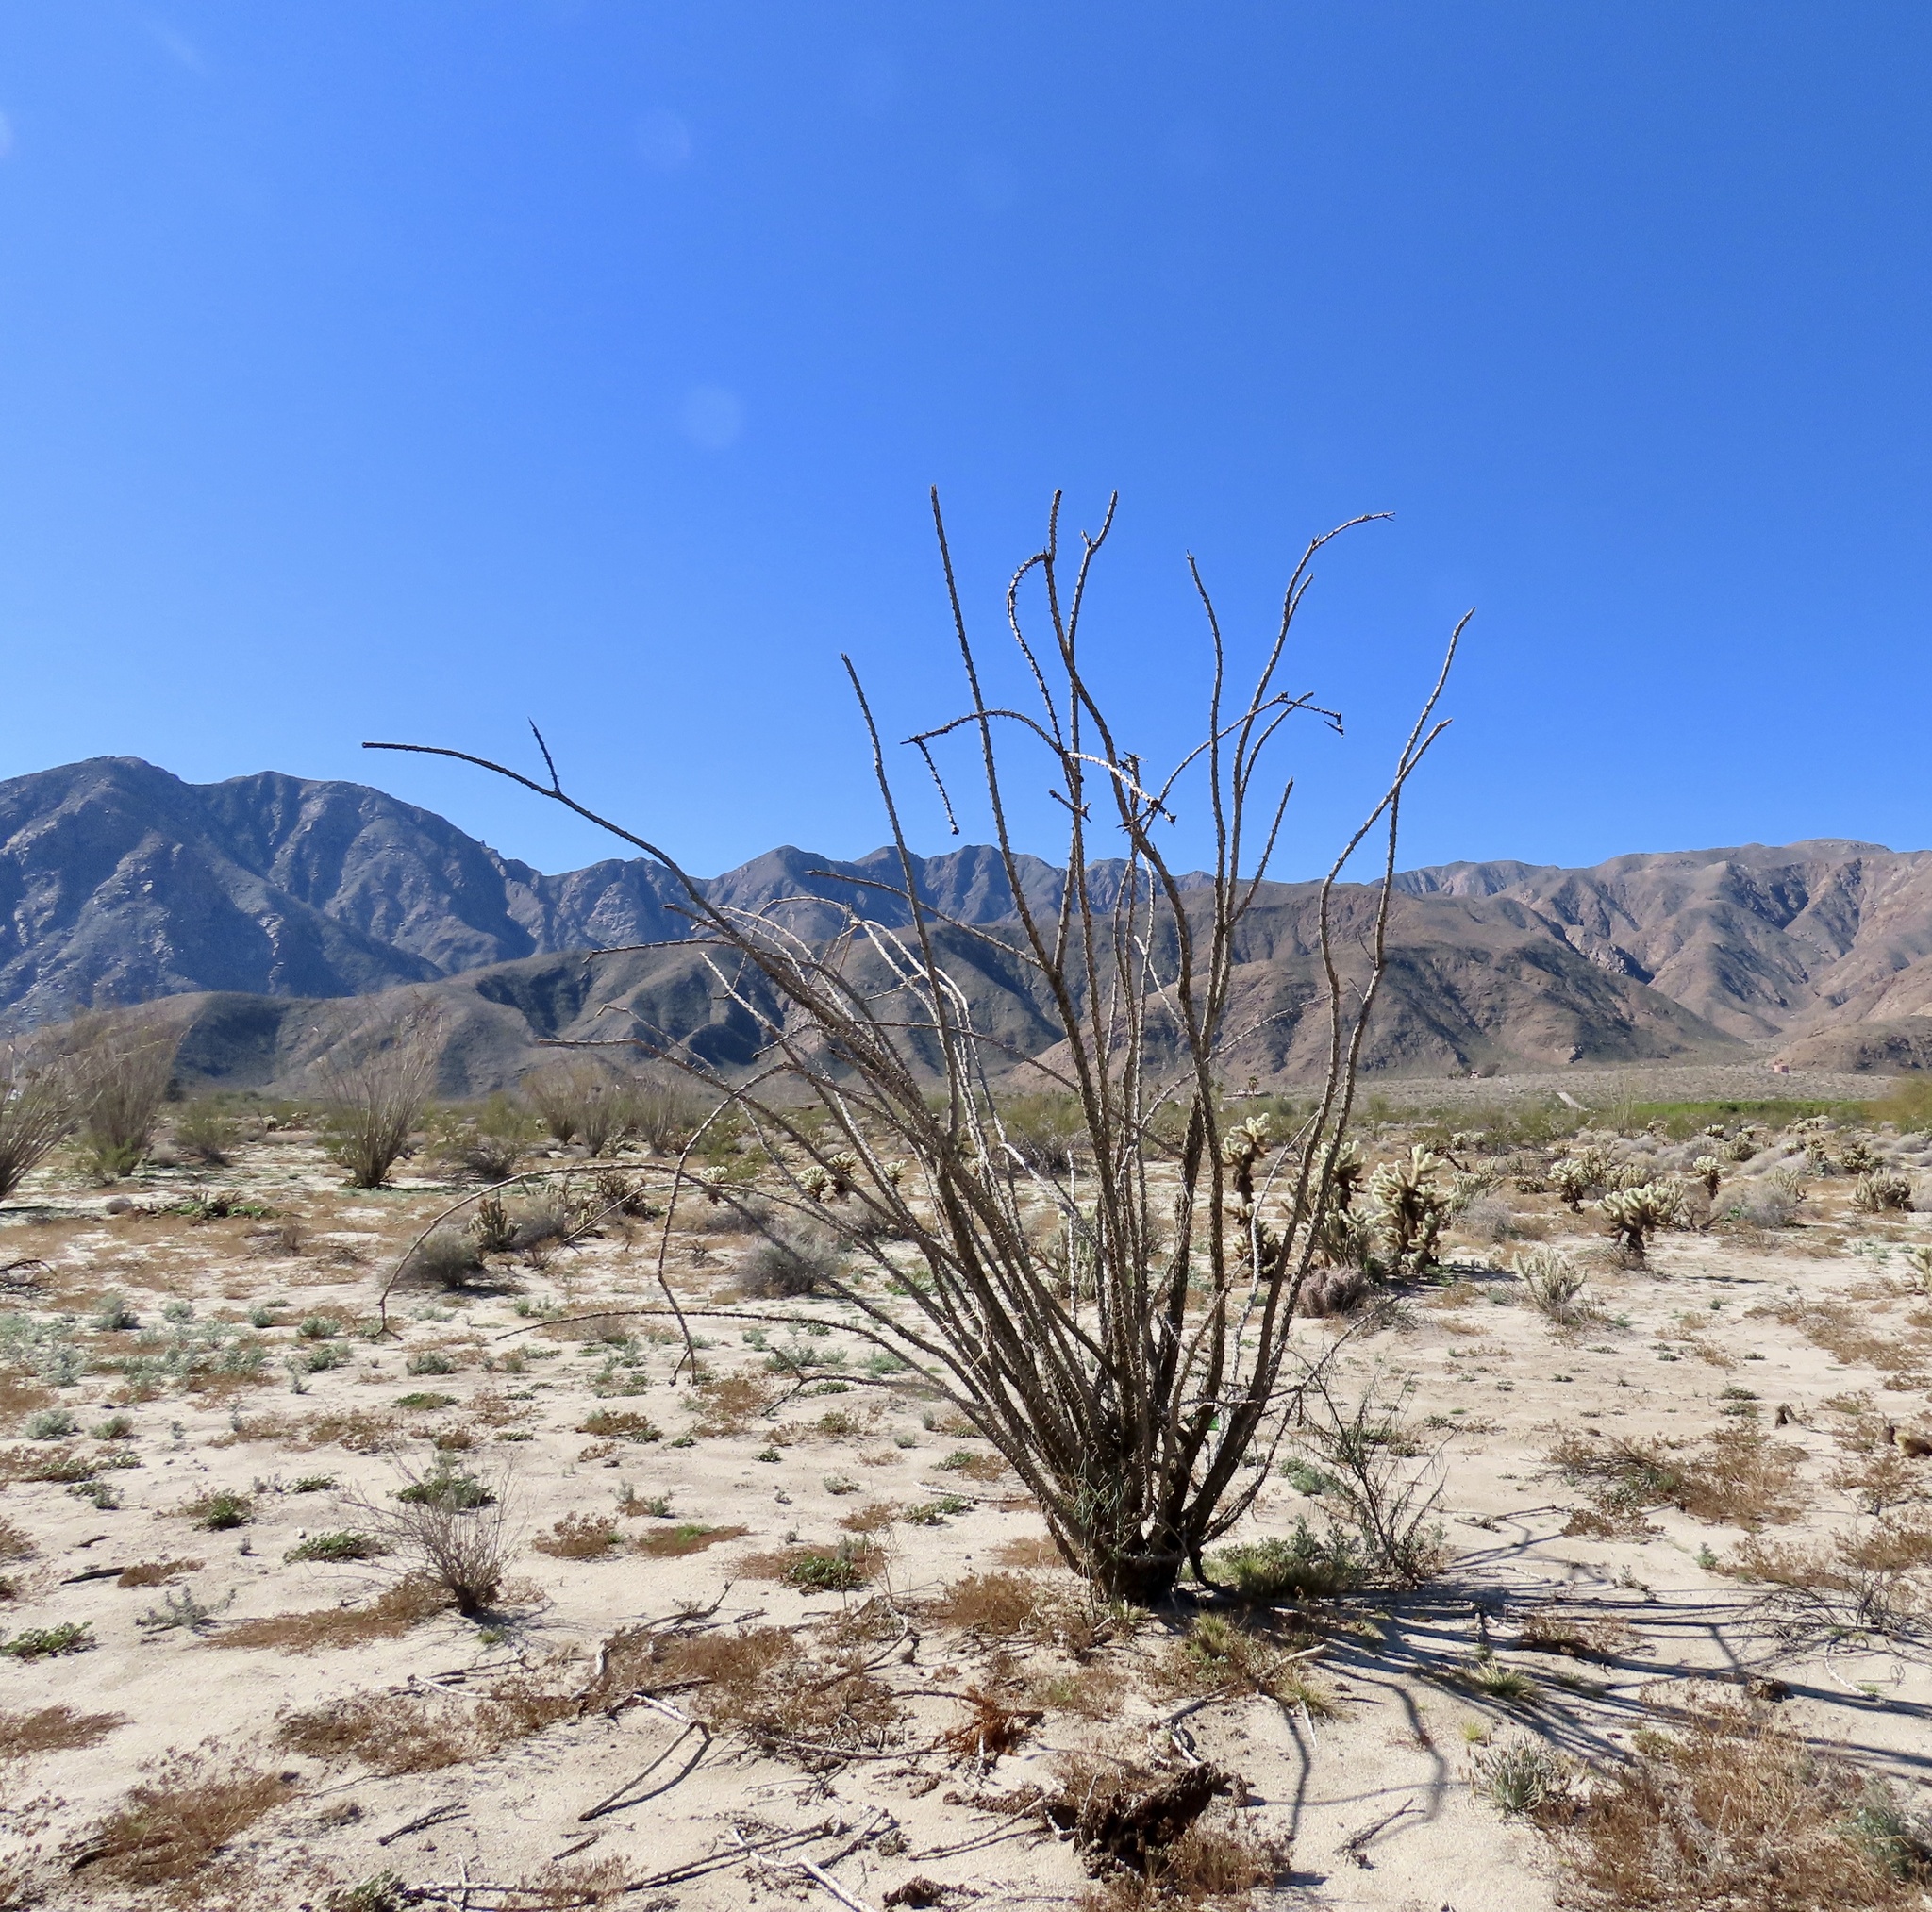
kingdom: Plantae
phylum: Tracheophyta
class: Magnoliopsida
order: Ericales
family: Fouquieriaceae
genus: Fouquieria
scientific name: Fouquieria splendens
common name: Vine-cactus
